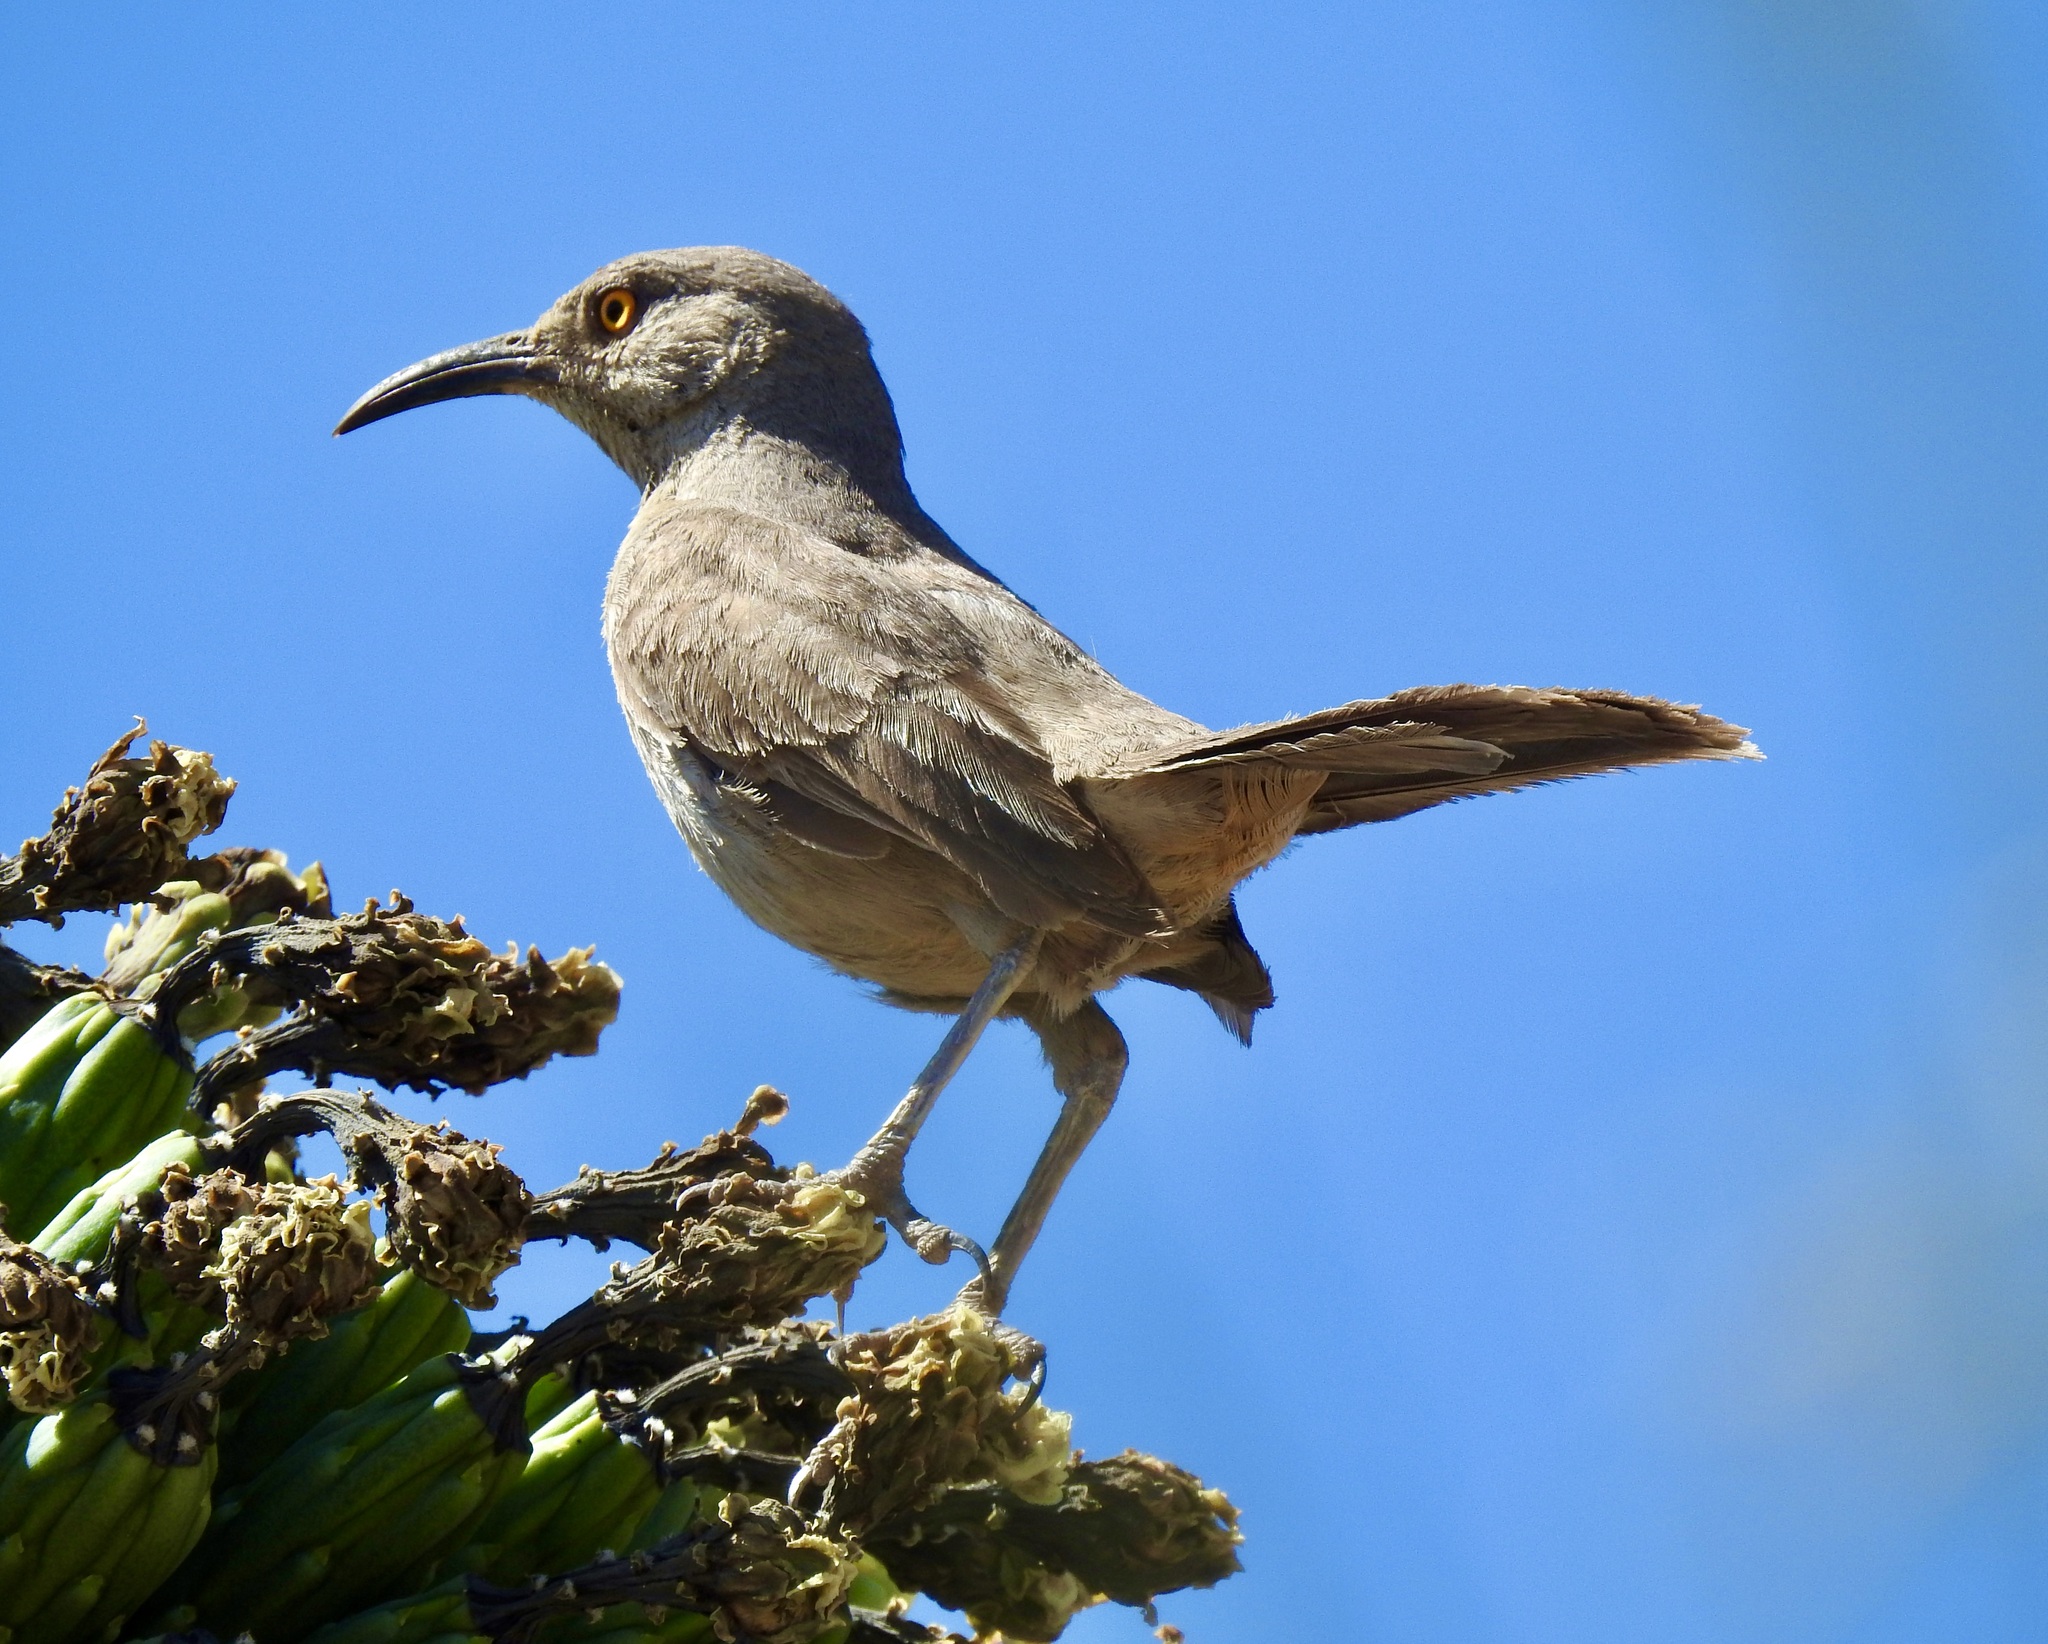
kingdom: Animalia
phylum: Chordata
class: Aves
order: Passeriformes
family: Mimidae
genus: Toxostoma
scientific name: Toxostoma curvirostre
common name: Curve-billed thrasher
